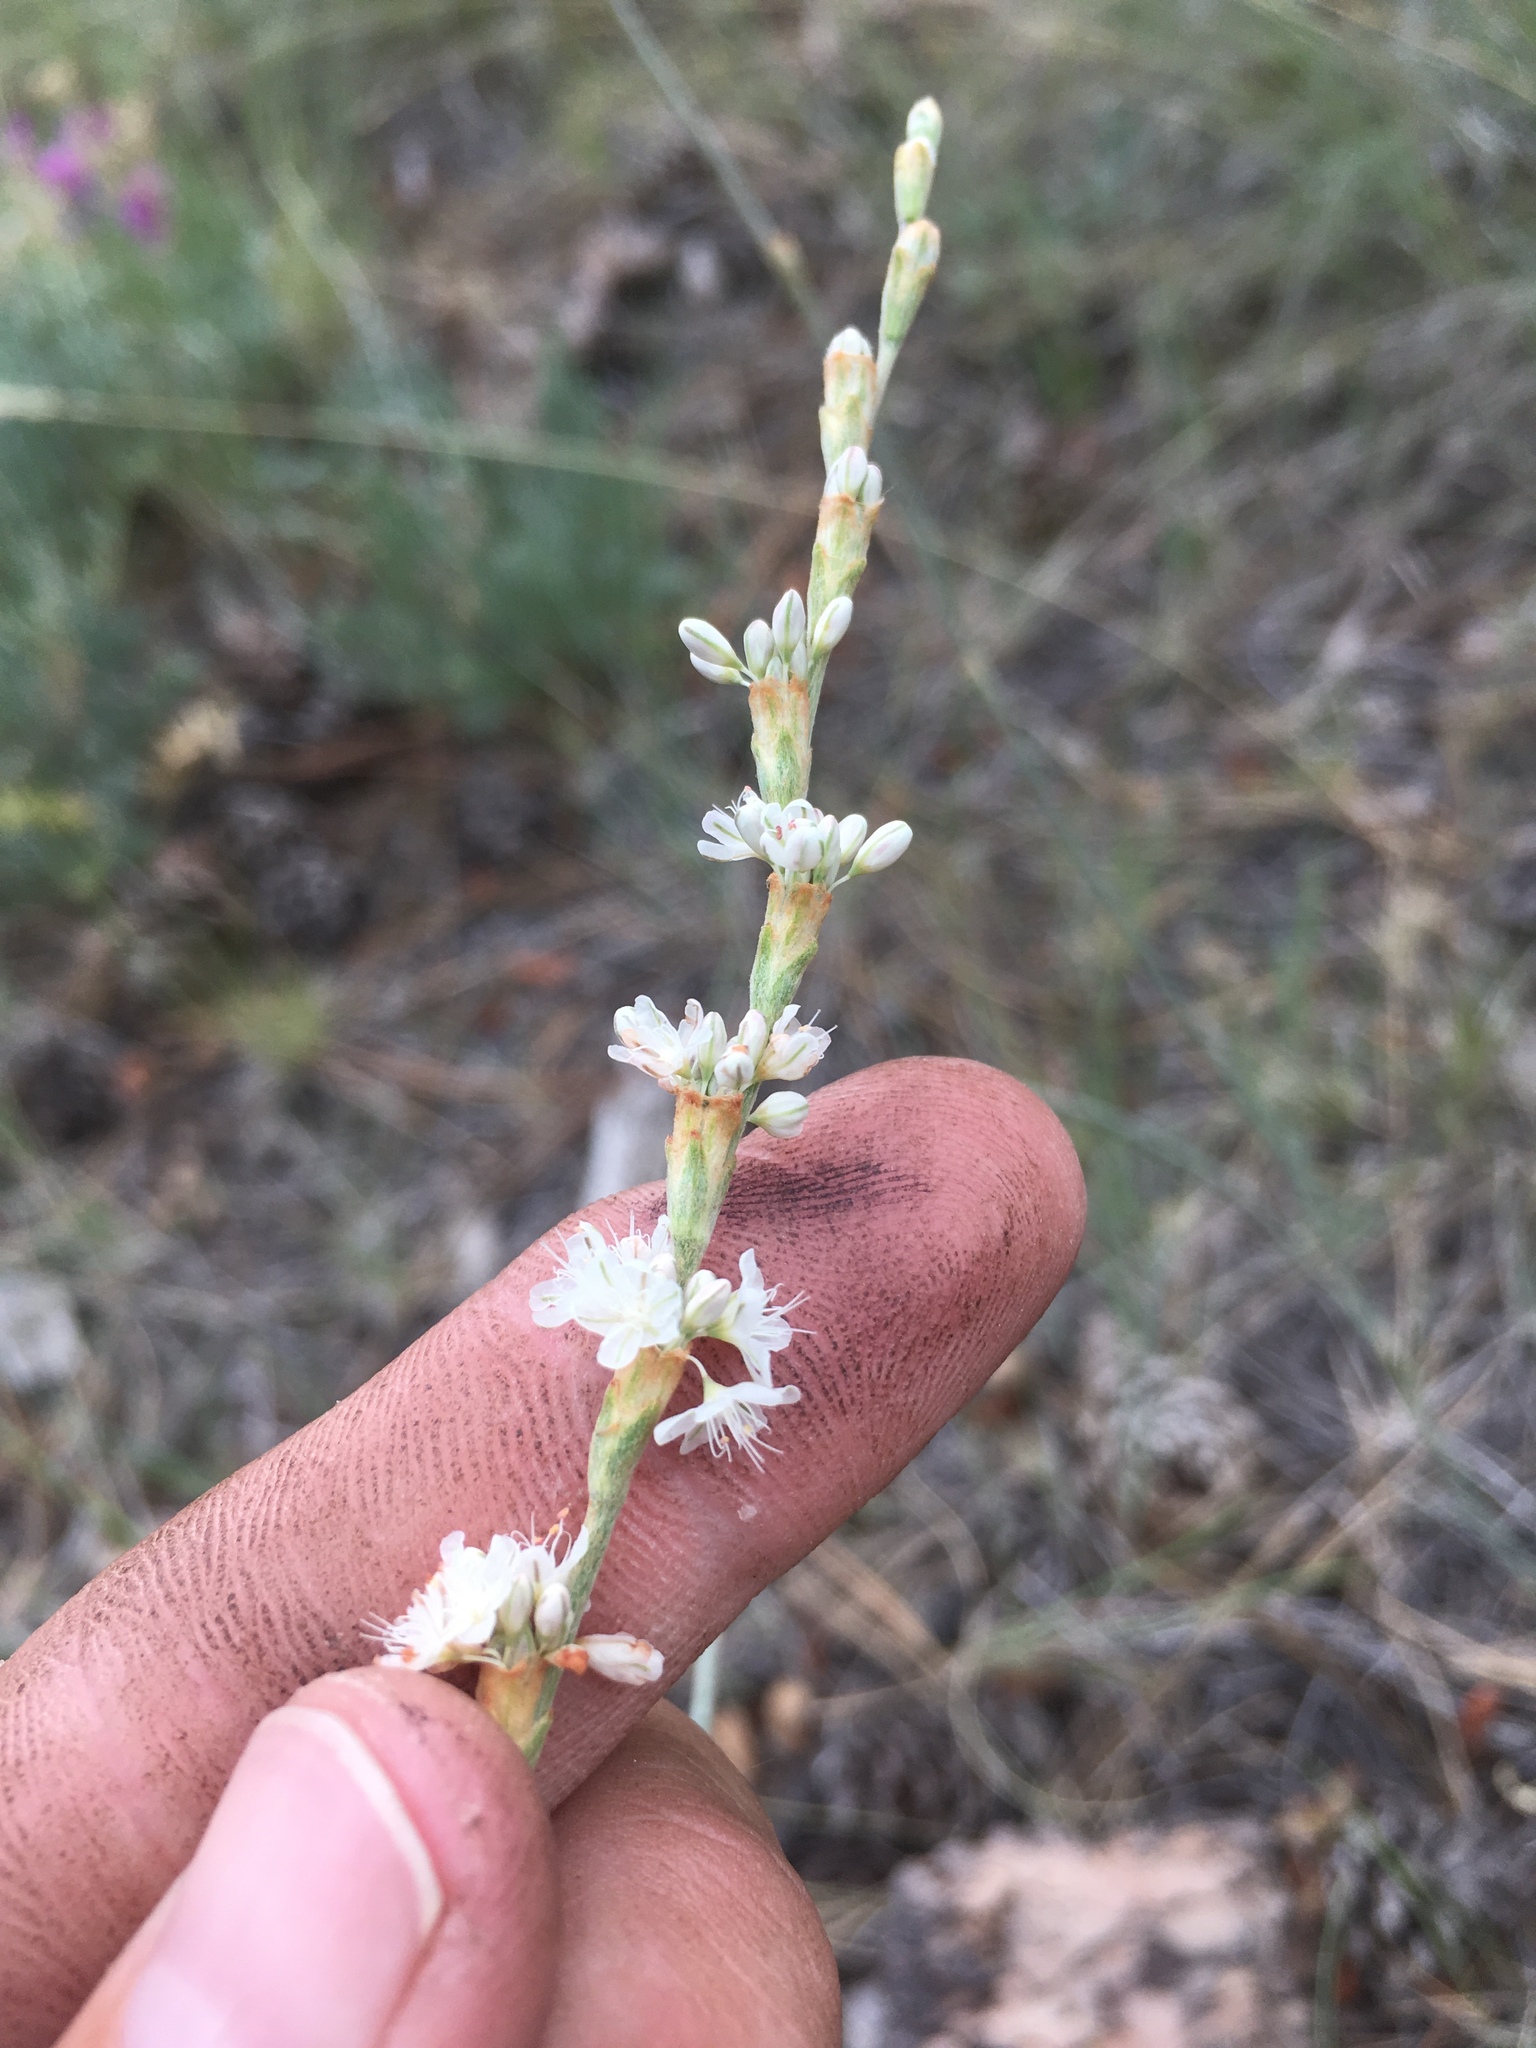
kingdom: Plantae
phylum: Tracheophyta
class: Magnoliopsida
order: Caryophyllales
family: Polygonaceae
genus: Eriogonum
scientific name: Eriogonum racemosum
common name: Redroot wild buckwheat
